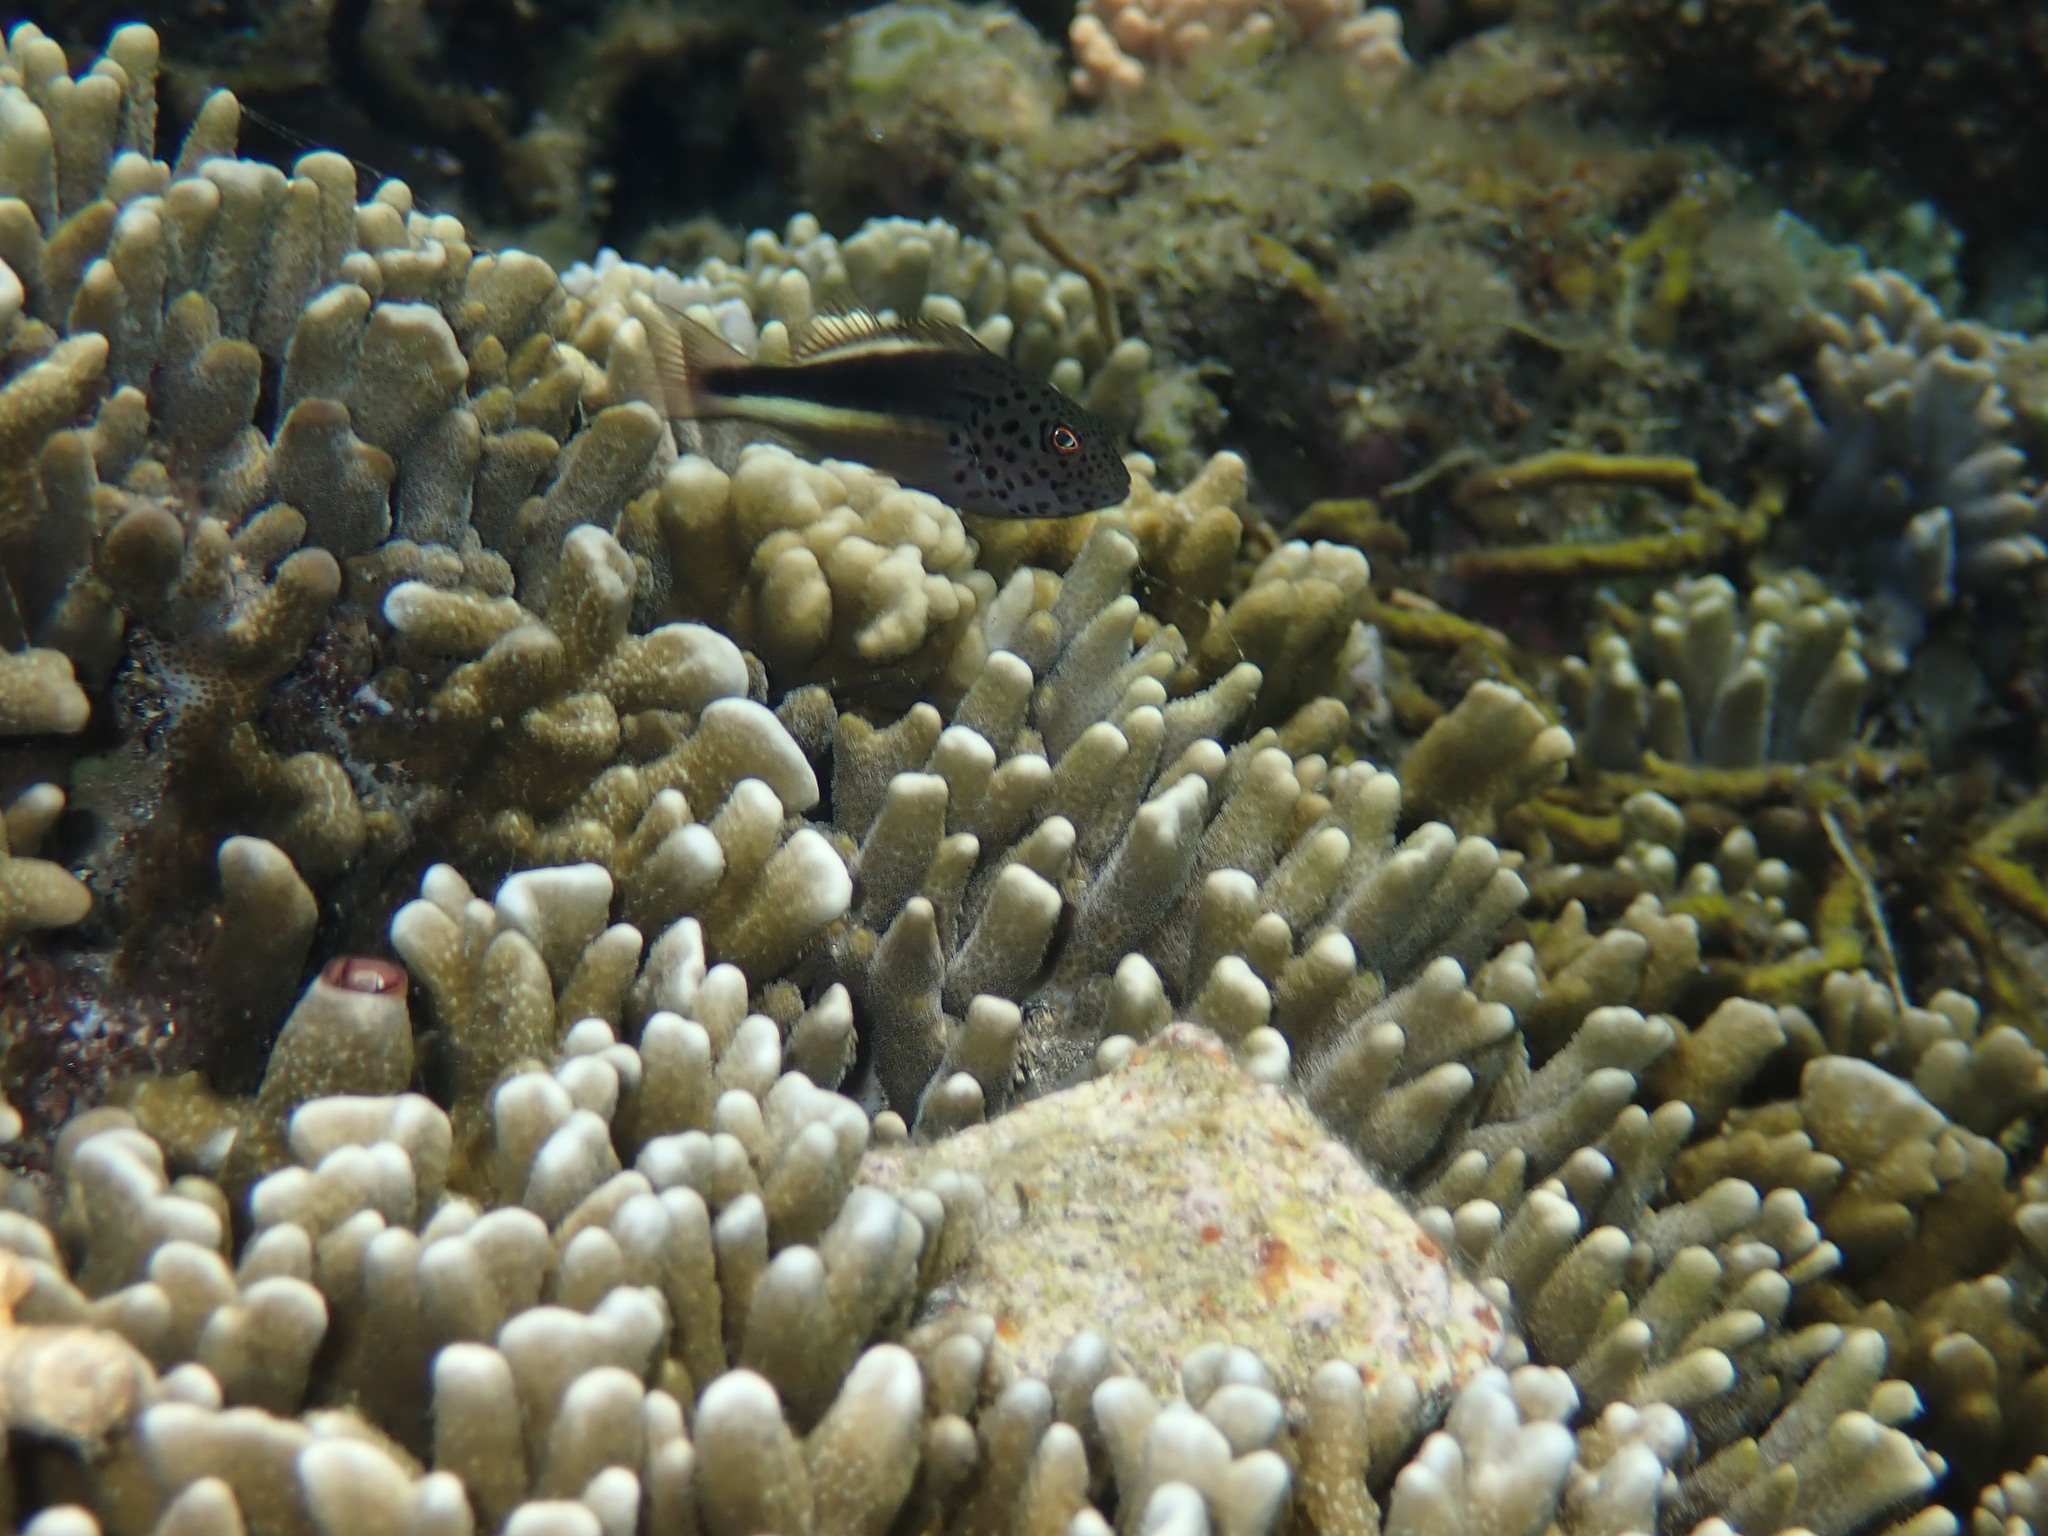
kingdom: Animalia
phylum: Chordata
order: Perciformes
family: Cirrhitidae
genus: Paracirrhites
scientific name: Paracirrhites forsteri
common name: Freckled hawkfish
